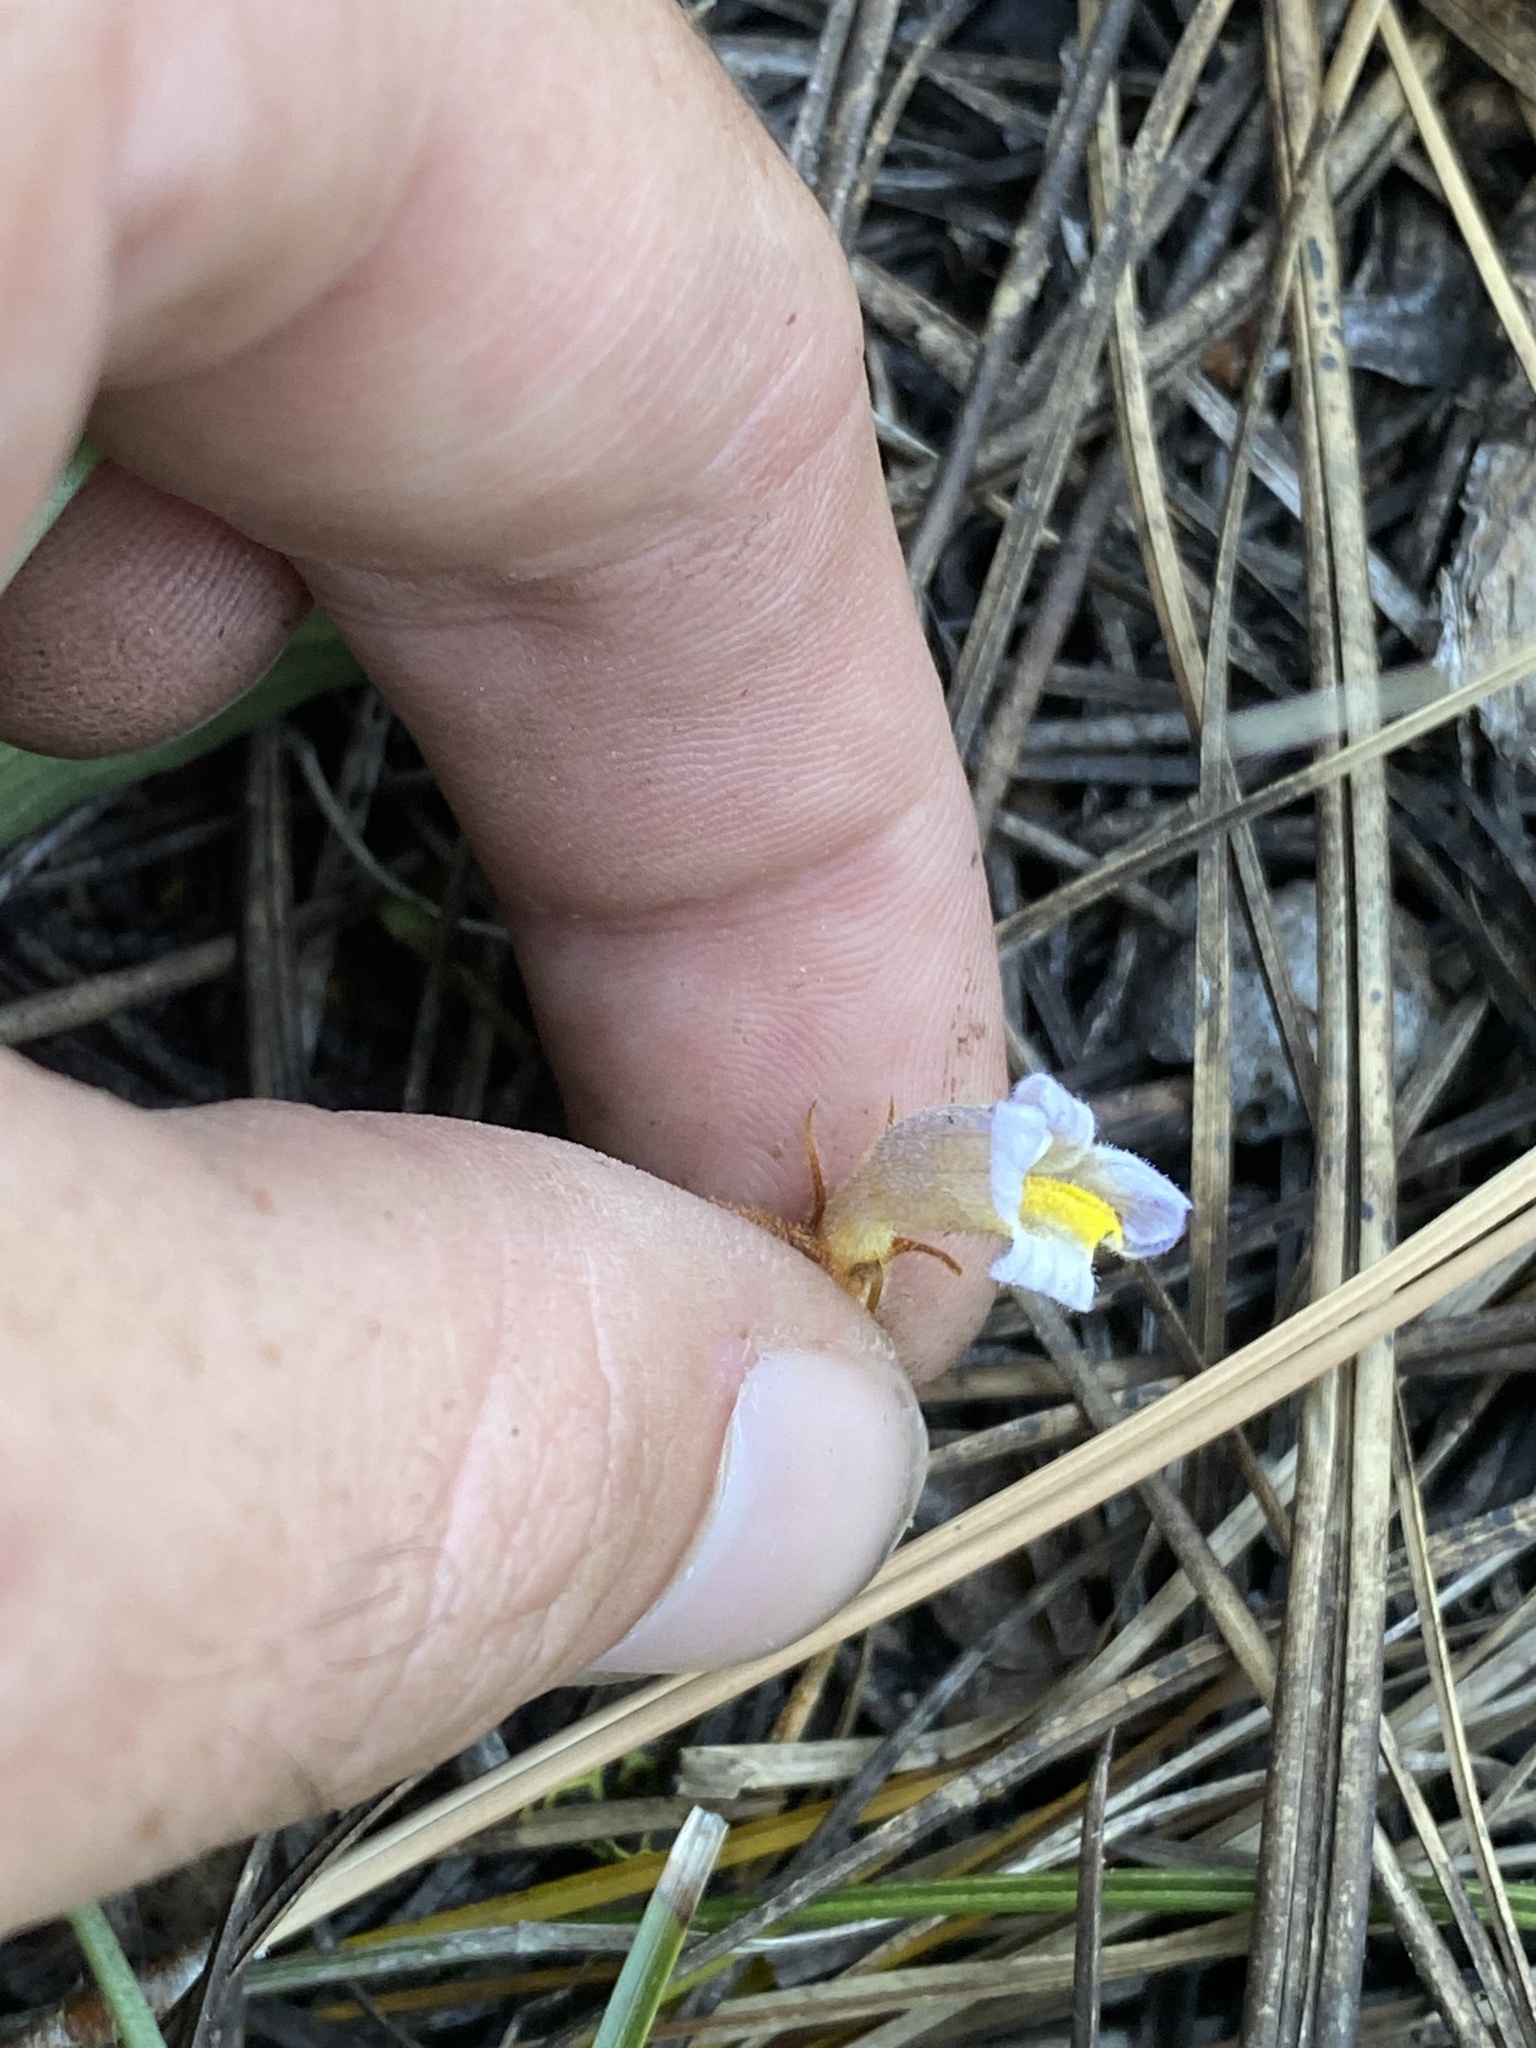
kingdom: Plantae
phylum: Tracheophyta
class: Magnoliopsida
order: Lamiales
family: Orobanchaceae
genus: Aphyllon
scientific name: Aphyllon uniflorum
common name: One-flowered broomrape
